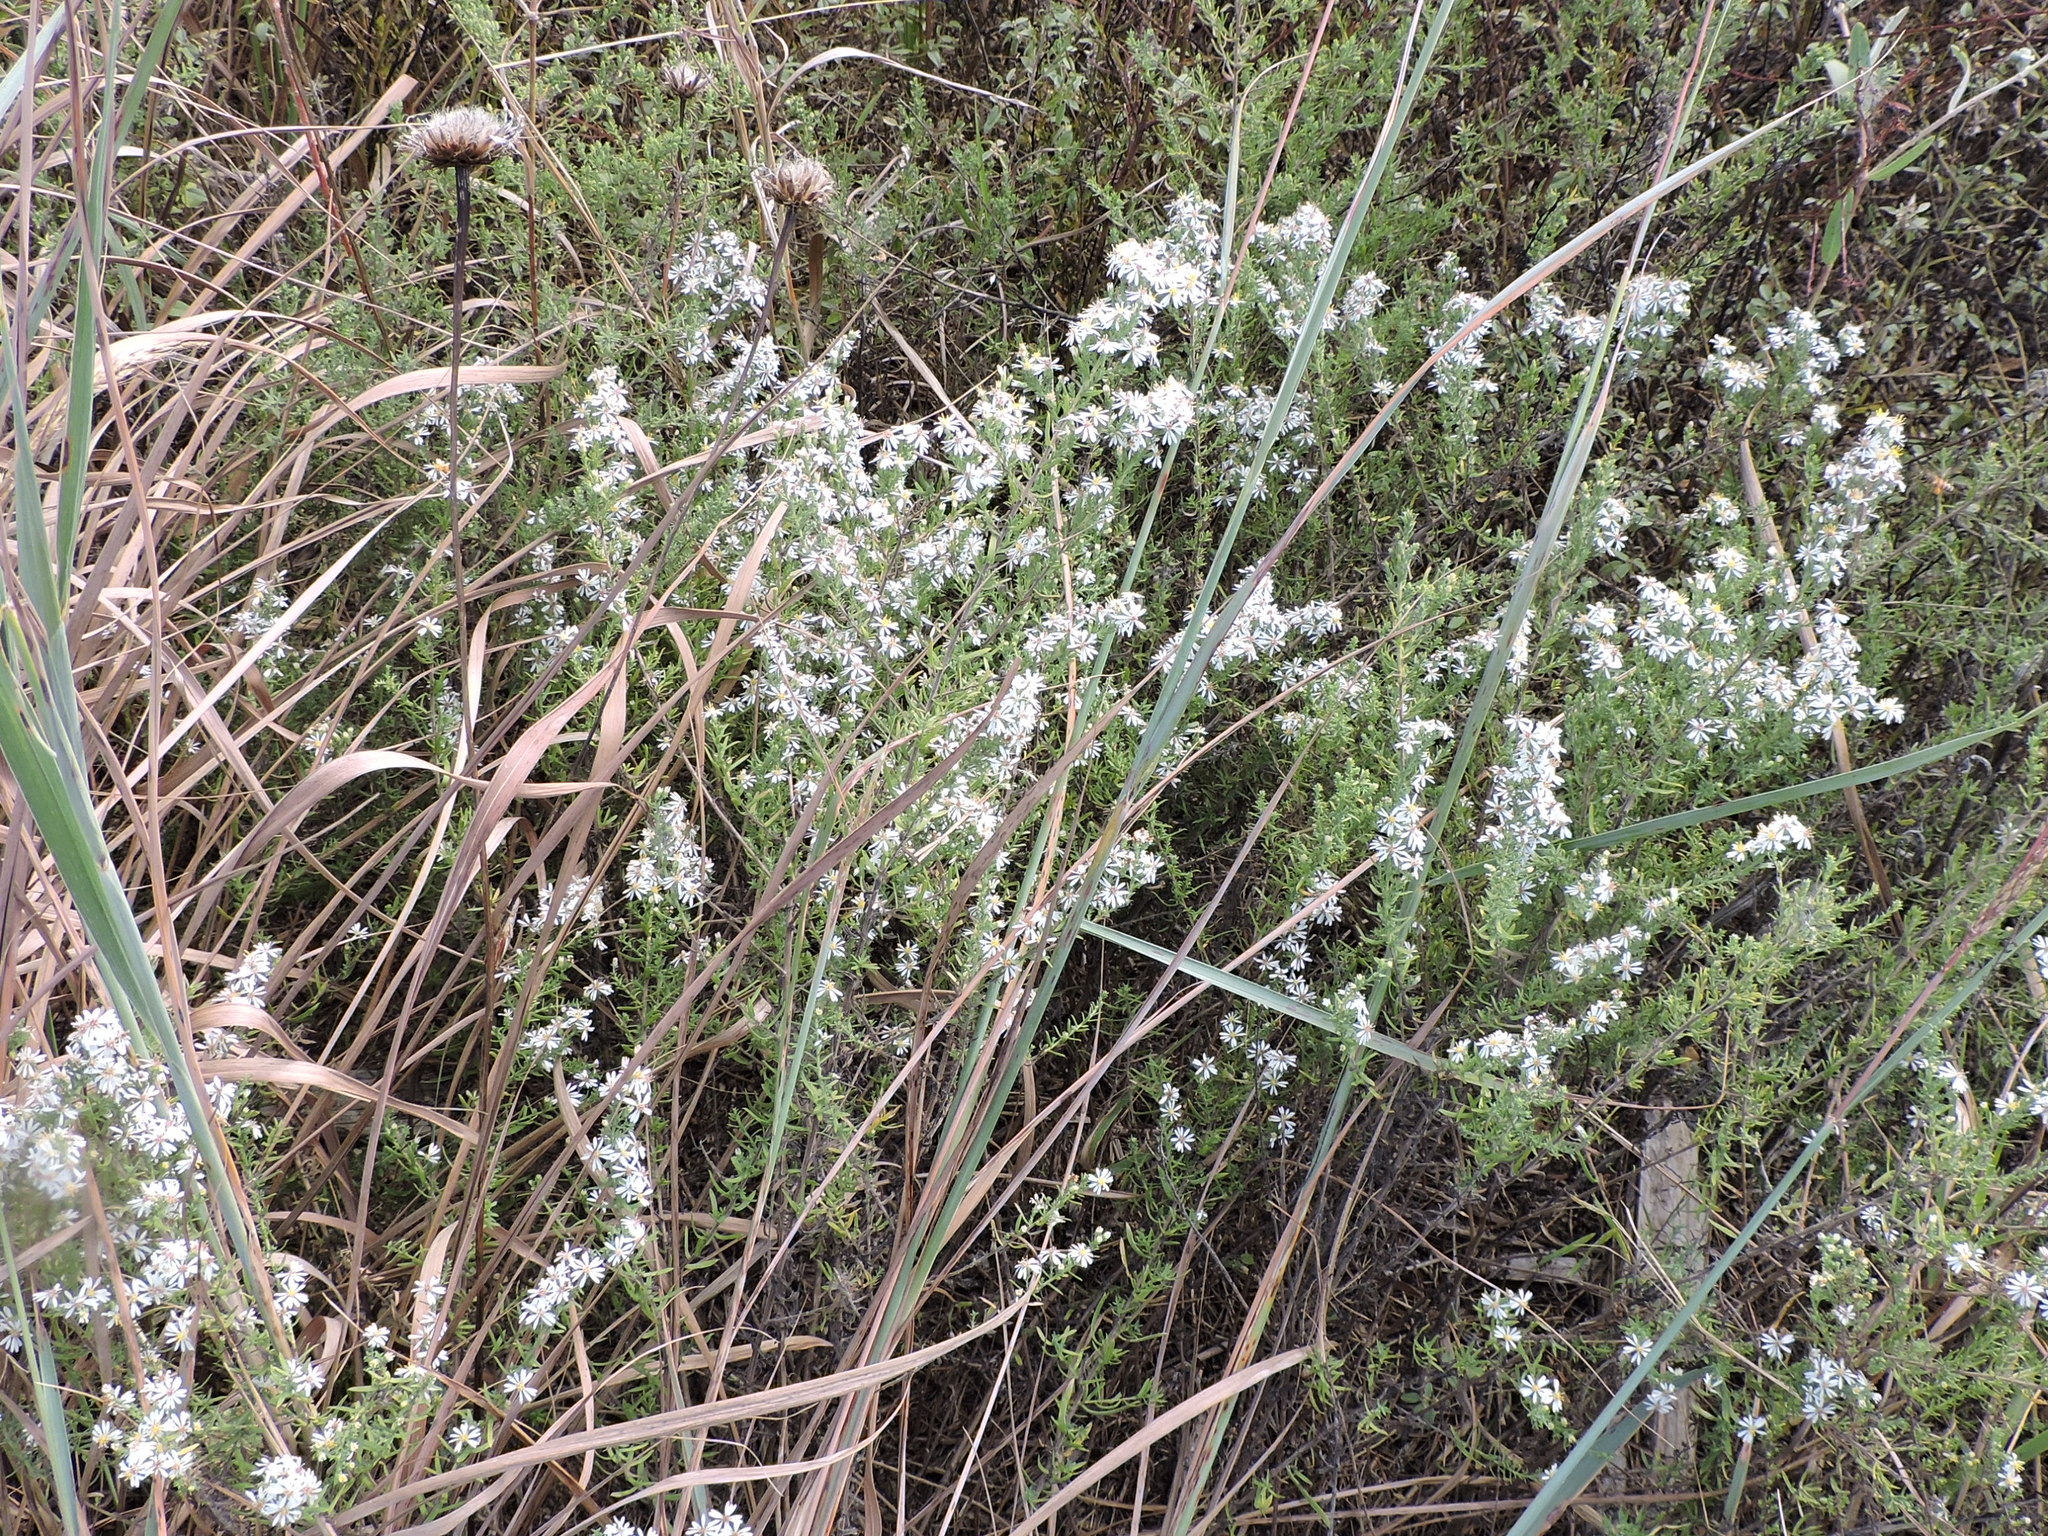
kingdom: Plantae
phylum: Tracheophyta
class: Magnoliopsida
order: Asterales
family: Asteraceae
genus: Symphyotrichum
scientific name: Symphyotrichum ericoides
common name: Heath aster
